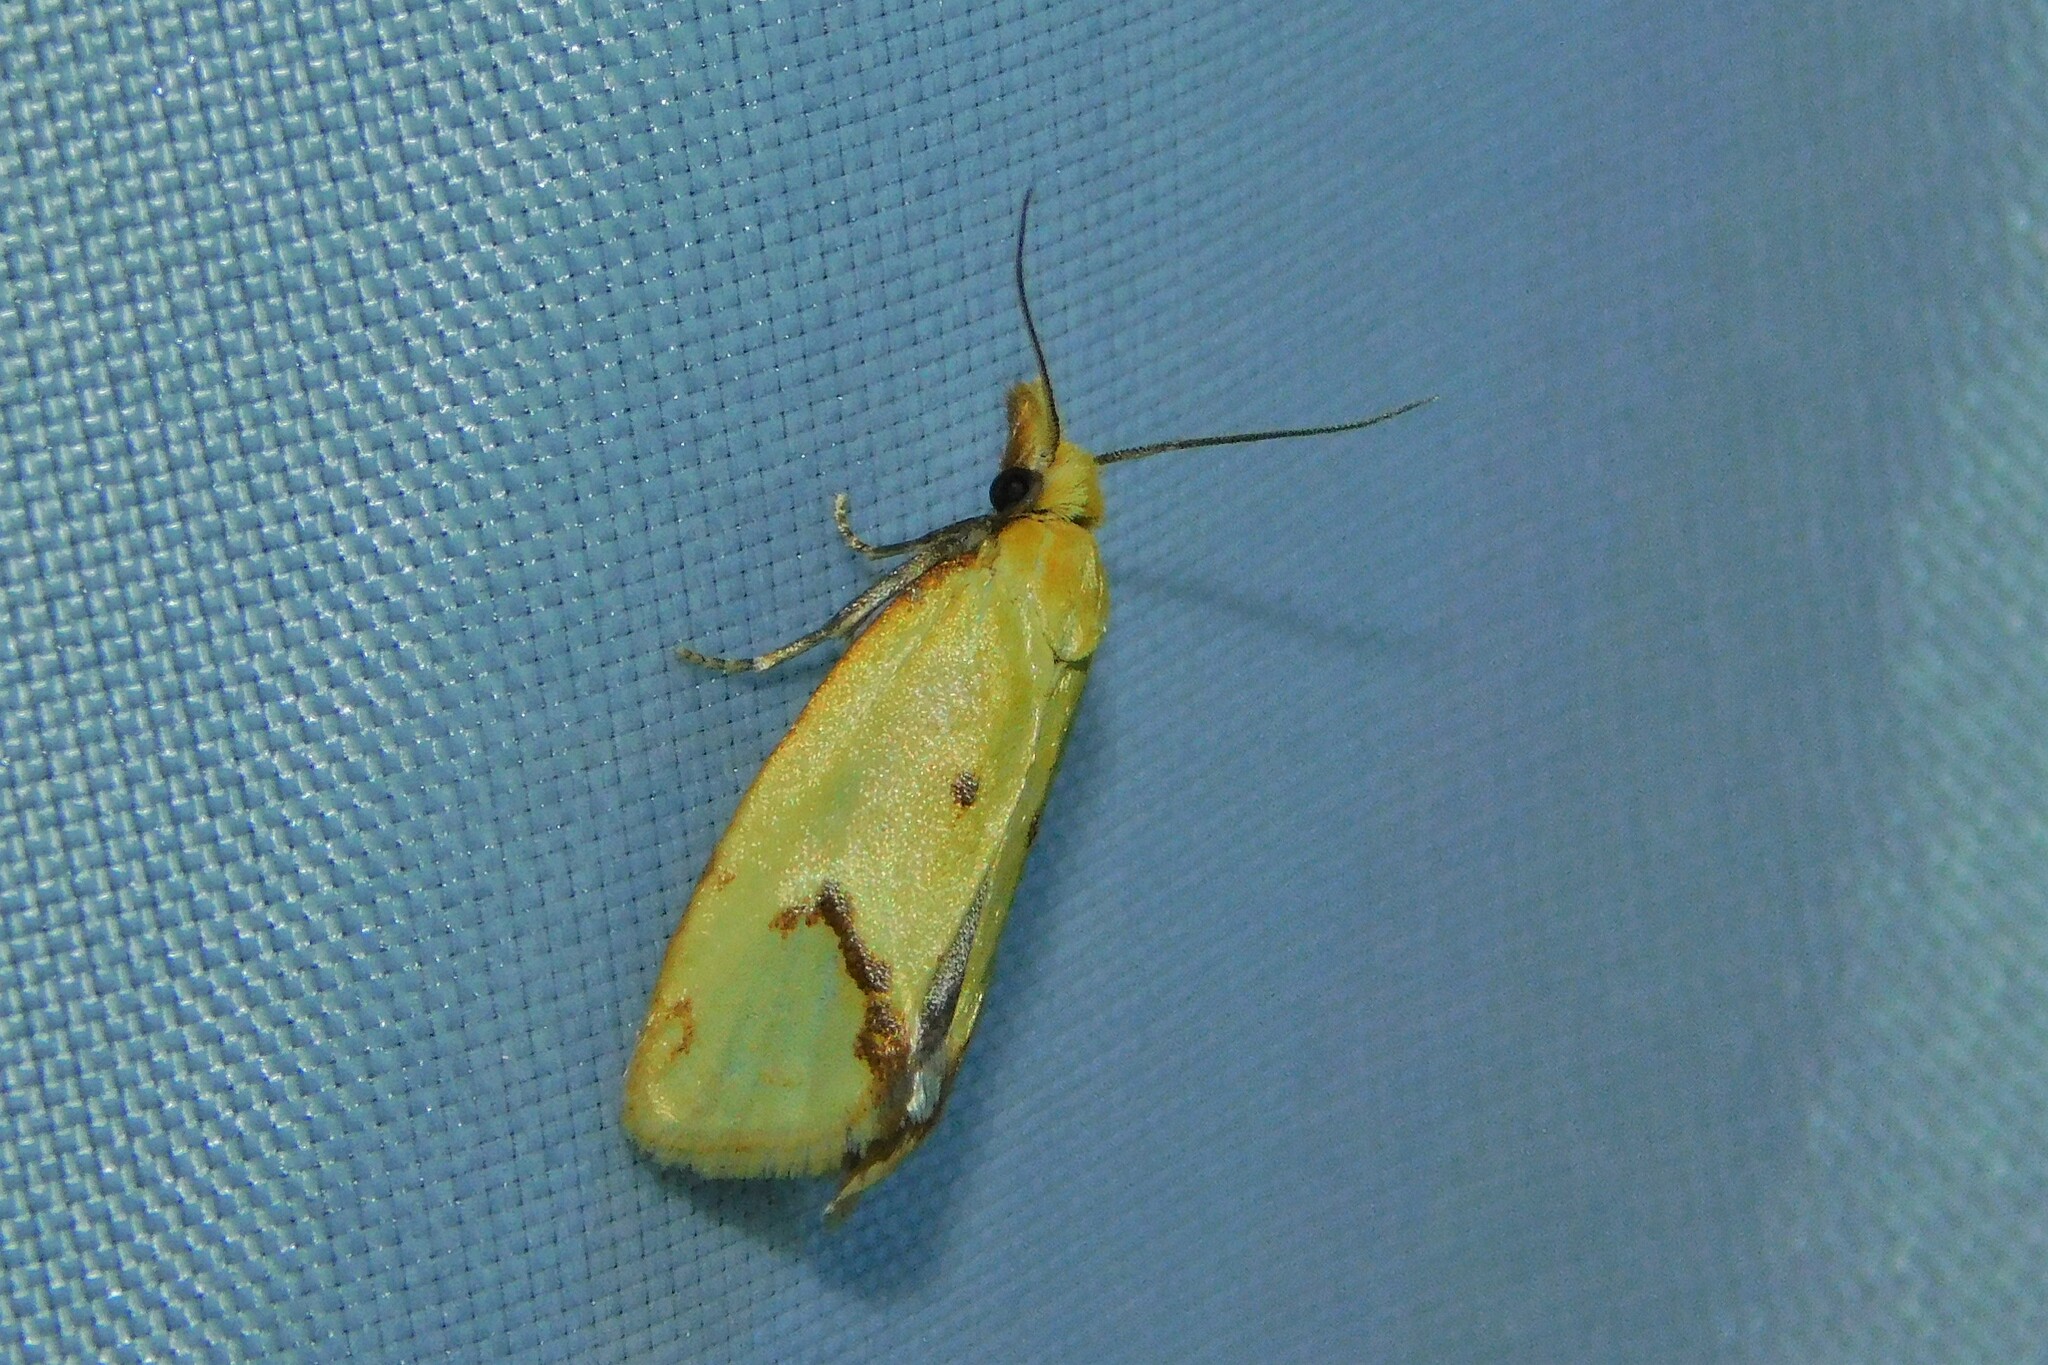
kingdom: Animalia
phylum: Arthropoda
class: Insecta
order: Lepidoptera
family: Tortricidae
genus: Agapeta
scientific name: Agapeta hamana
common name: Common yellow conch
